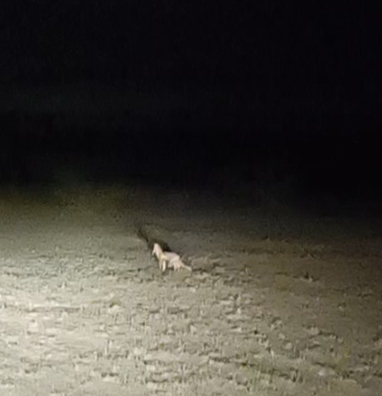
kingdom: Animalia
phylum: Chordata
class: Mammalia
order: Carnivora
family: Canidae
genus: Vulpes
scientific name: Vulpes vulpes
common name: Red fox
